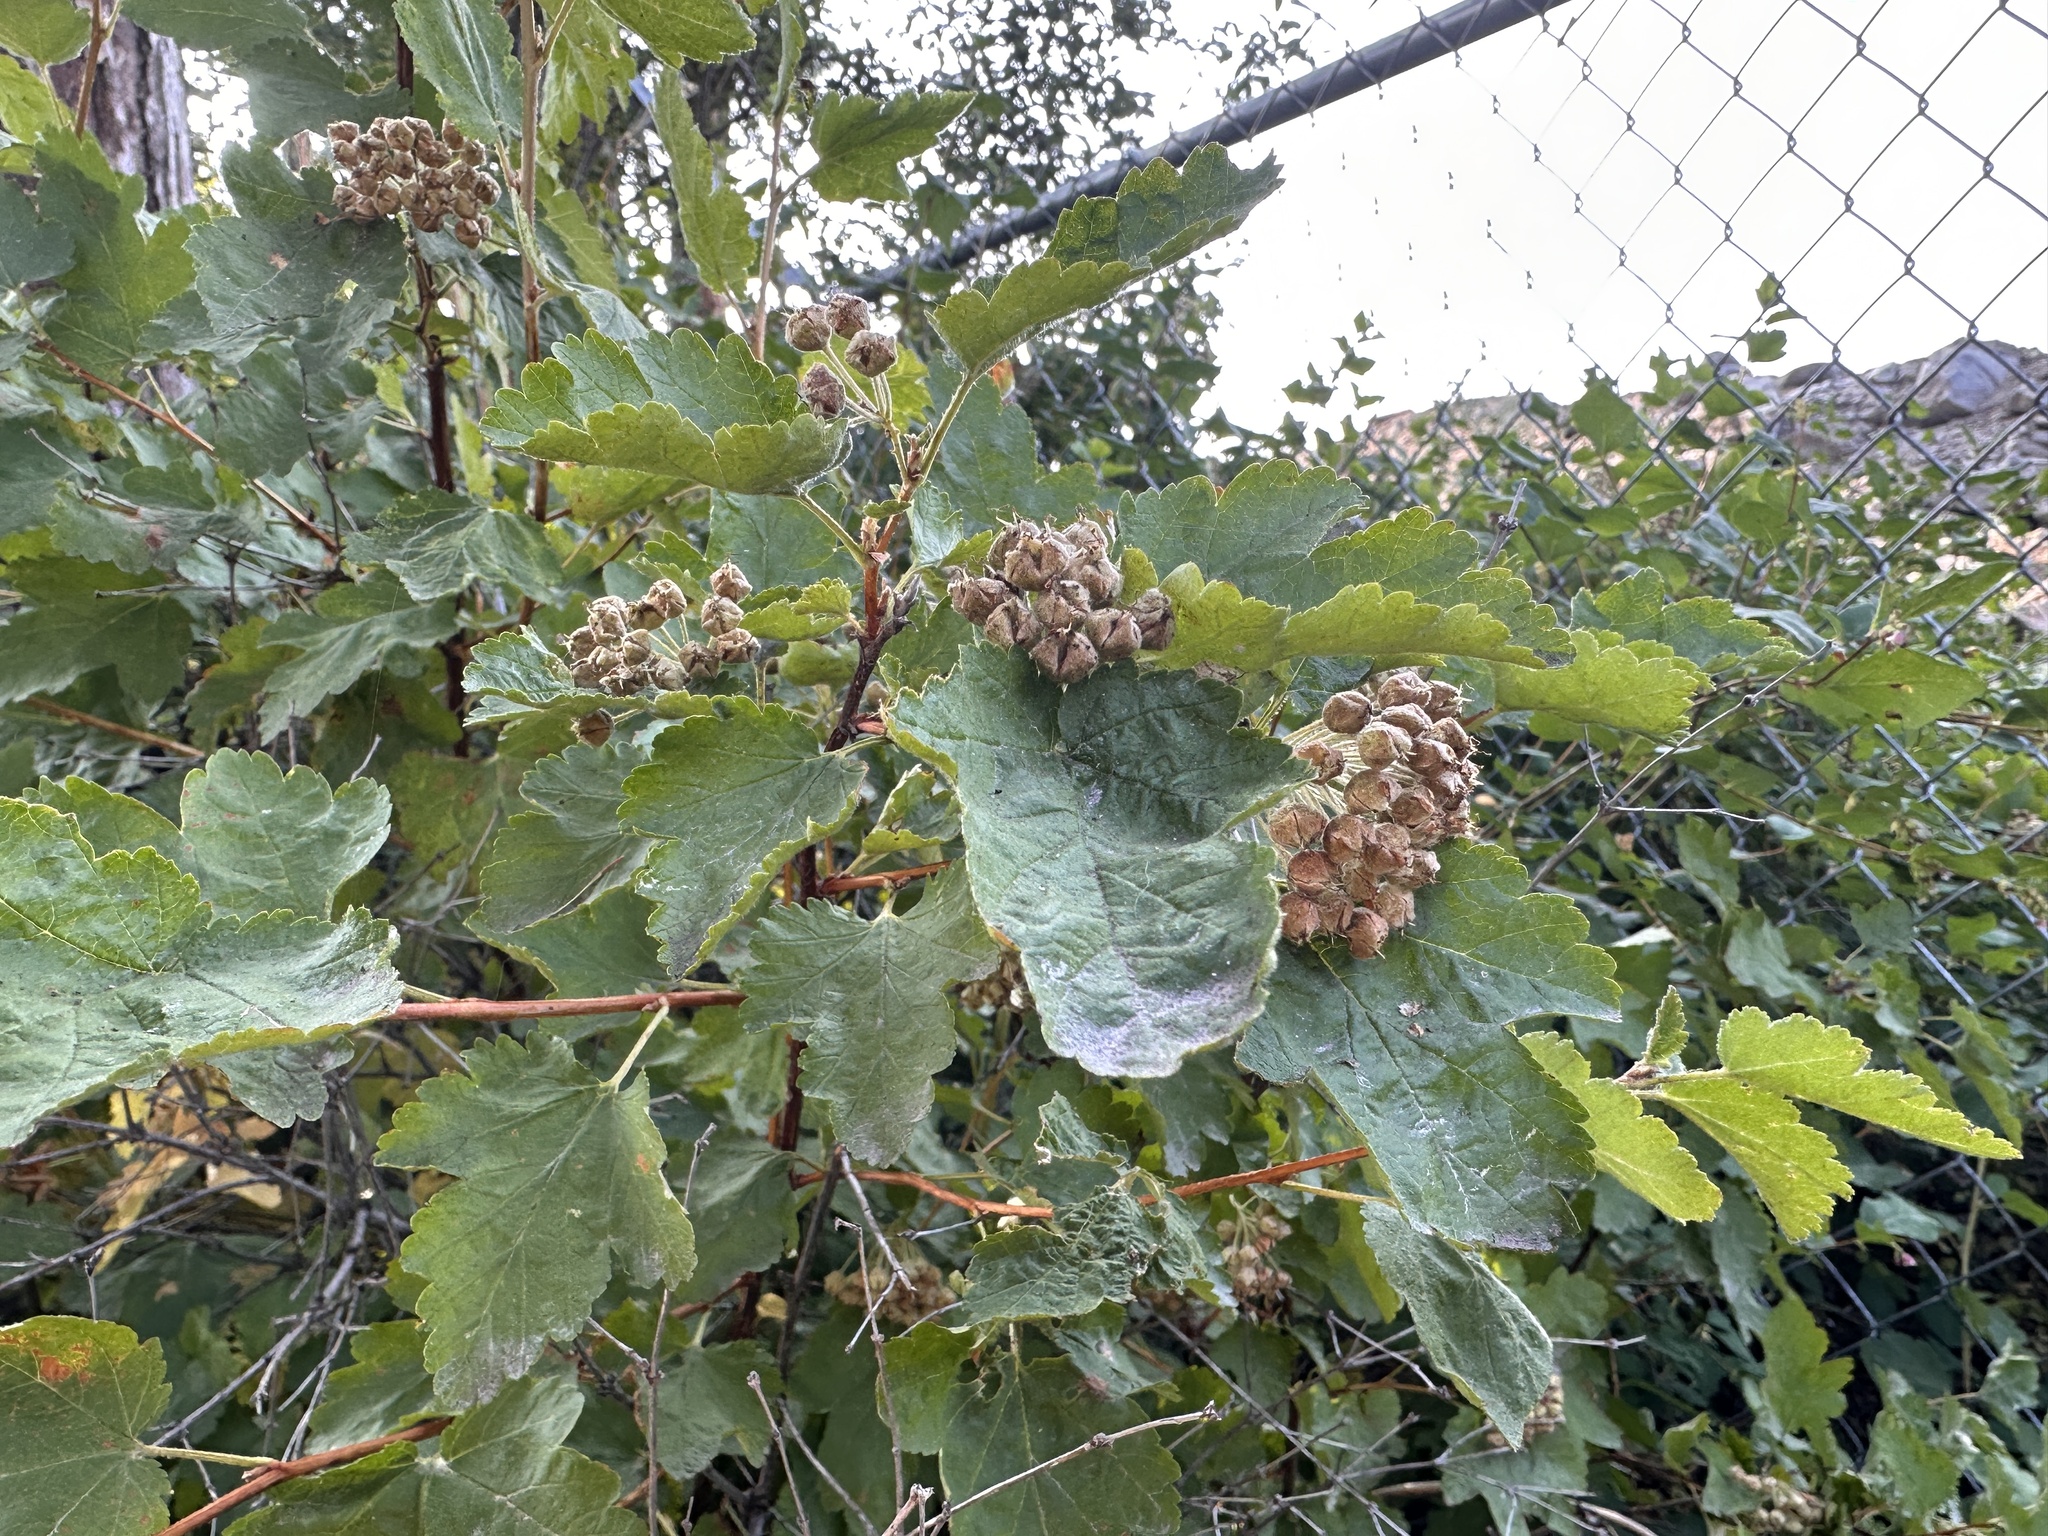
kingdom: Plantae
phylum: Tracheophyta
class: Magnoliopsida
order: Rosales
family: Rosaceae
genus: Physocarpus
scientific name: Physocarpus malvaceus
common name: Mallow ninebark
